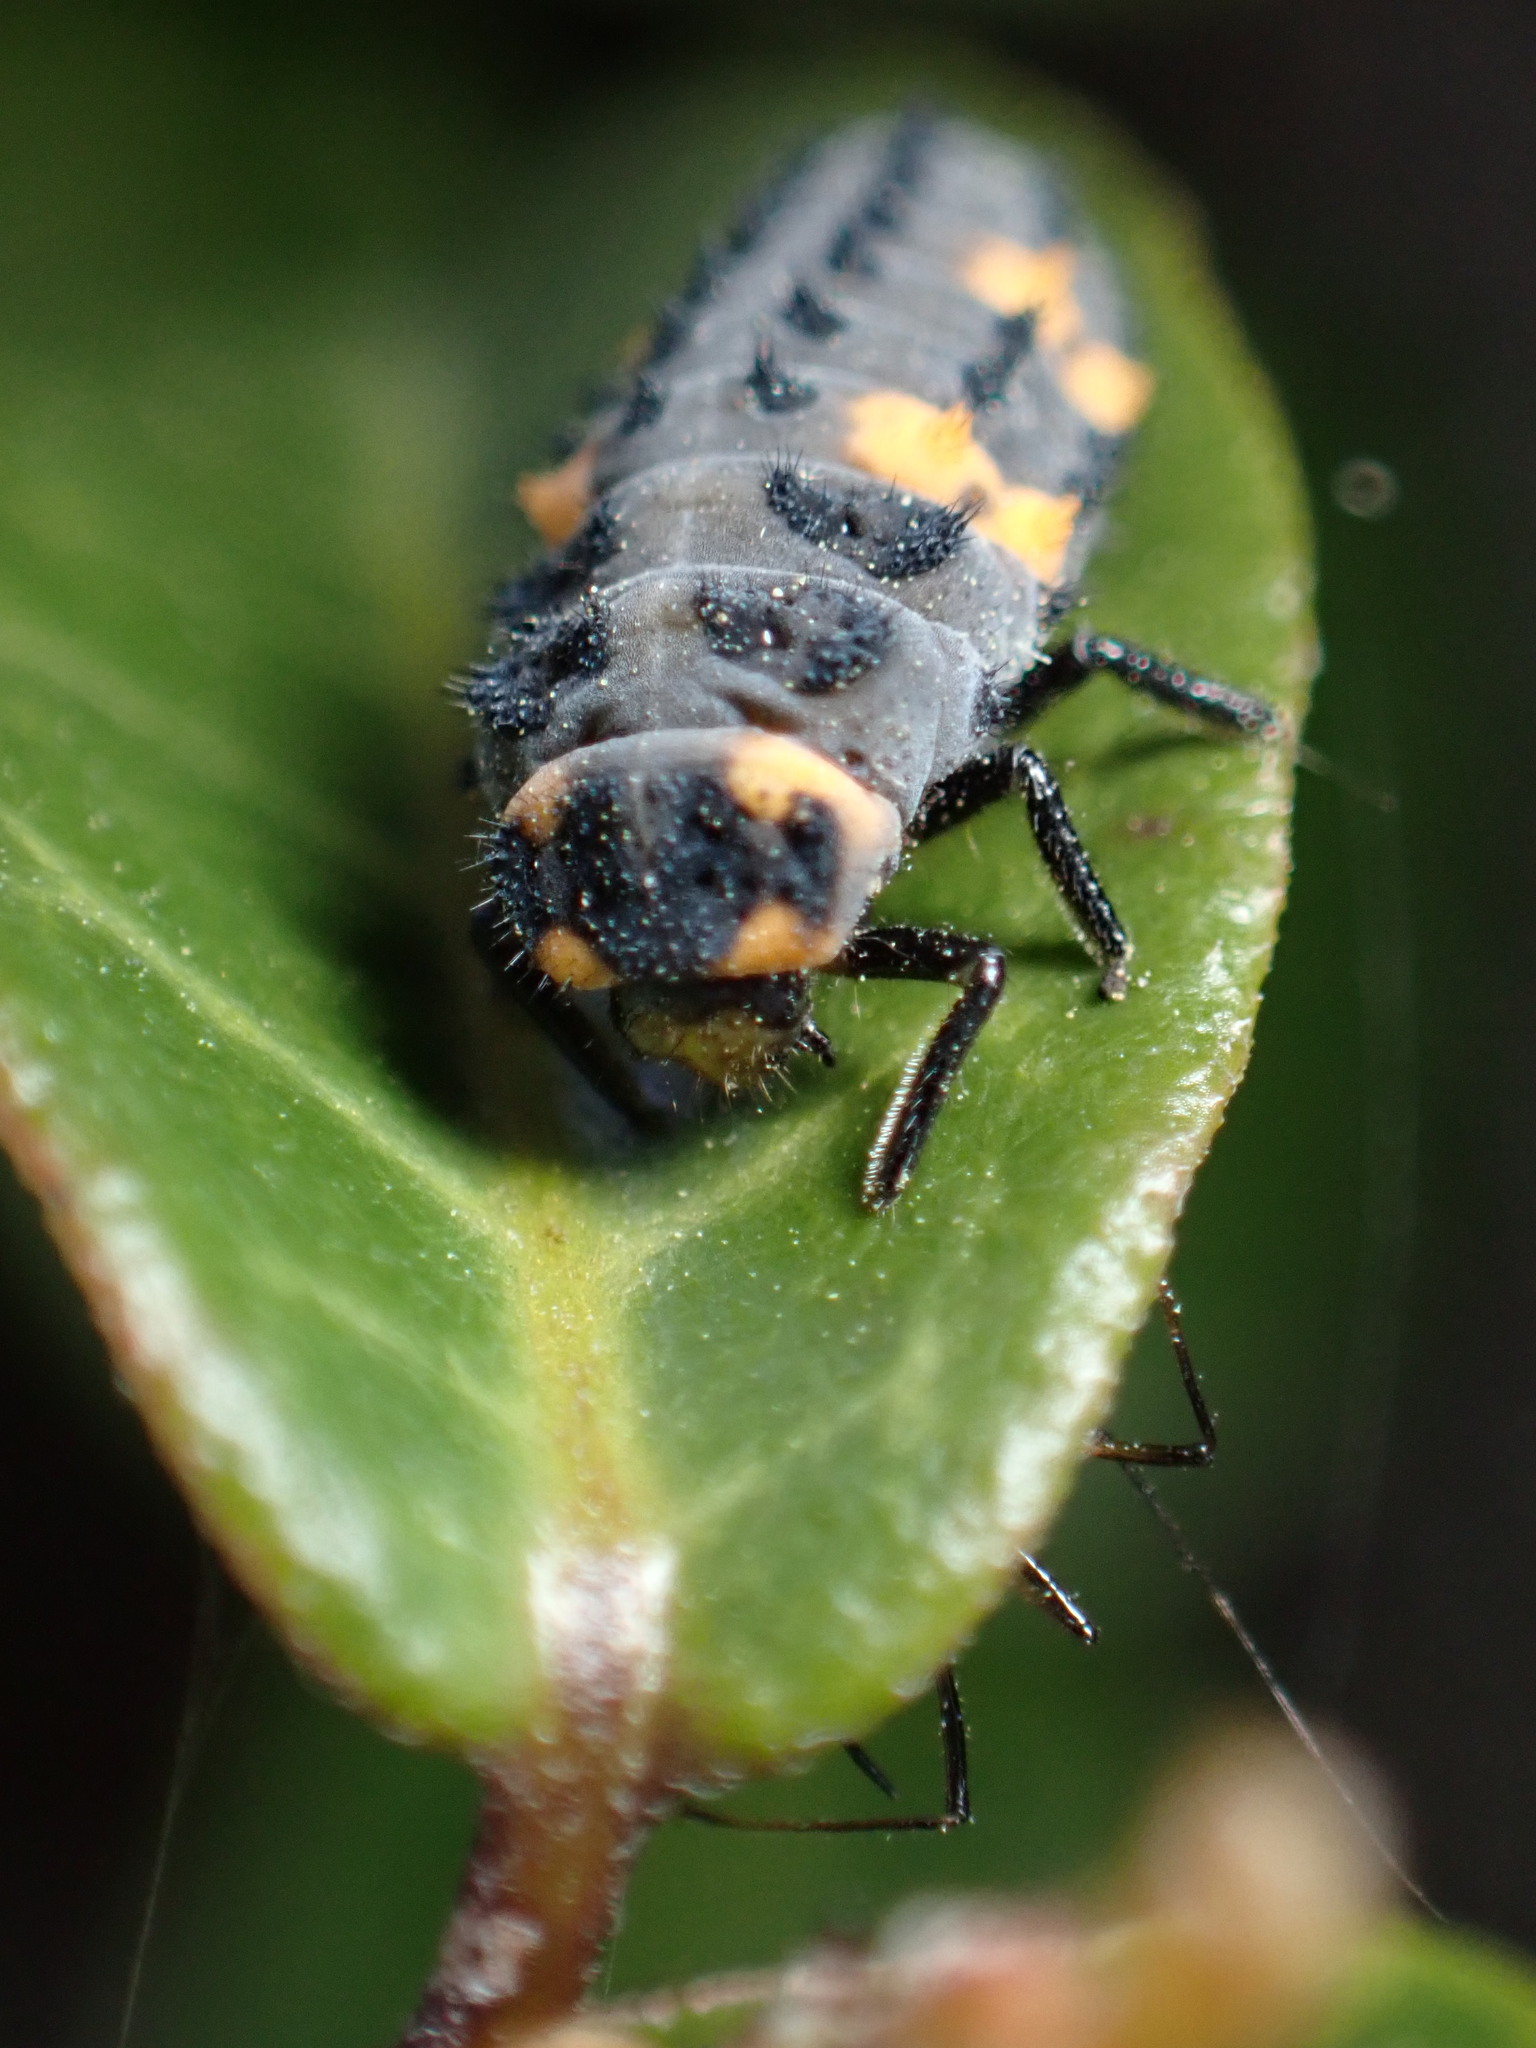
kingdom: Animalia
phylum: Arthropoda
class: Insecta
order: Coleoptera
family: Coccinellidae
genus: Coccinella
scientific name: Coccinella septempunctata
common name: Sevenspotted lady beetle
